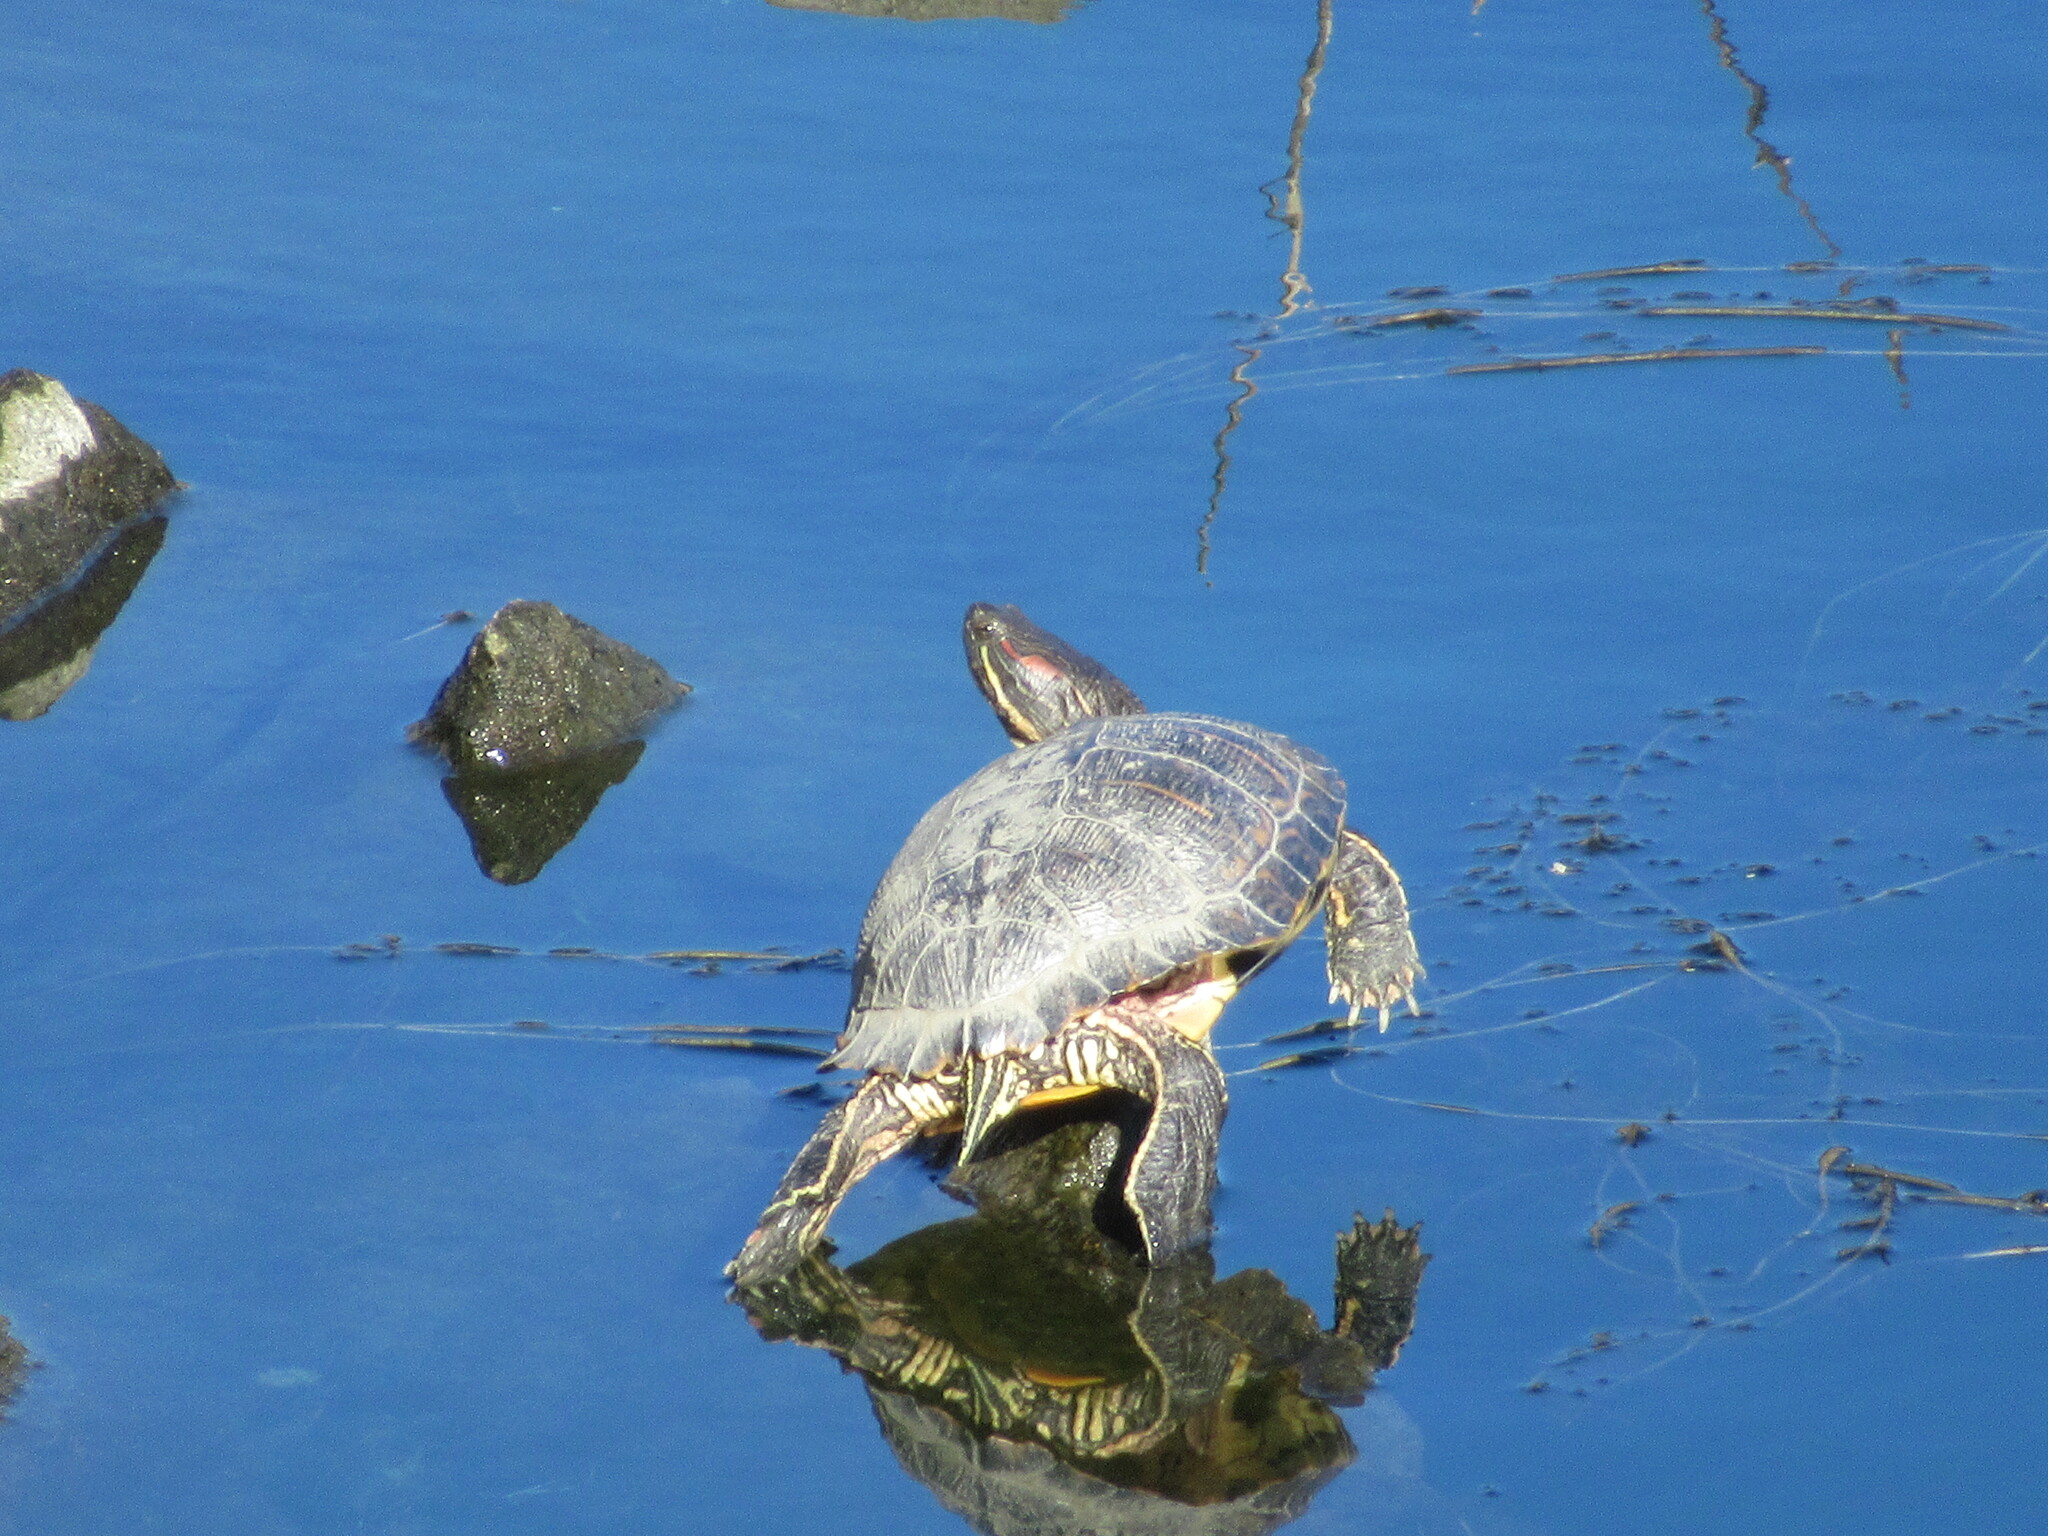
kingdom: Animalia
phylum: Chordata
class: Testudines
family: Emydidae
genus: Trachemys
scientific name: Trachemys scripta
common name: Slider
